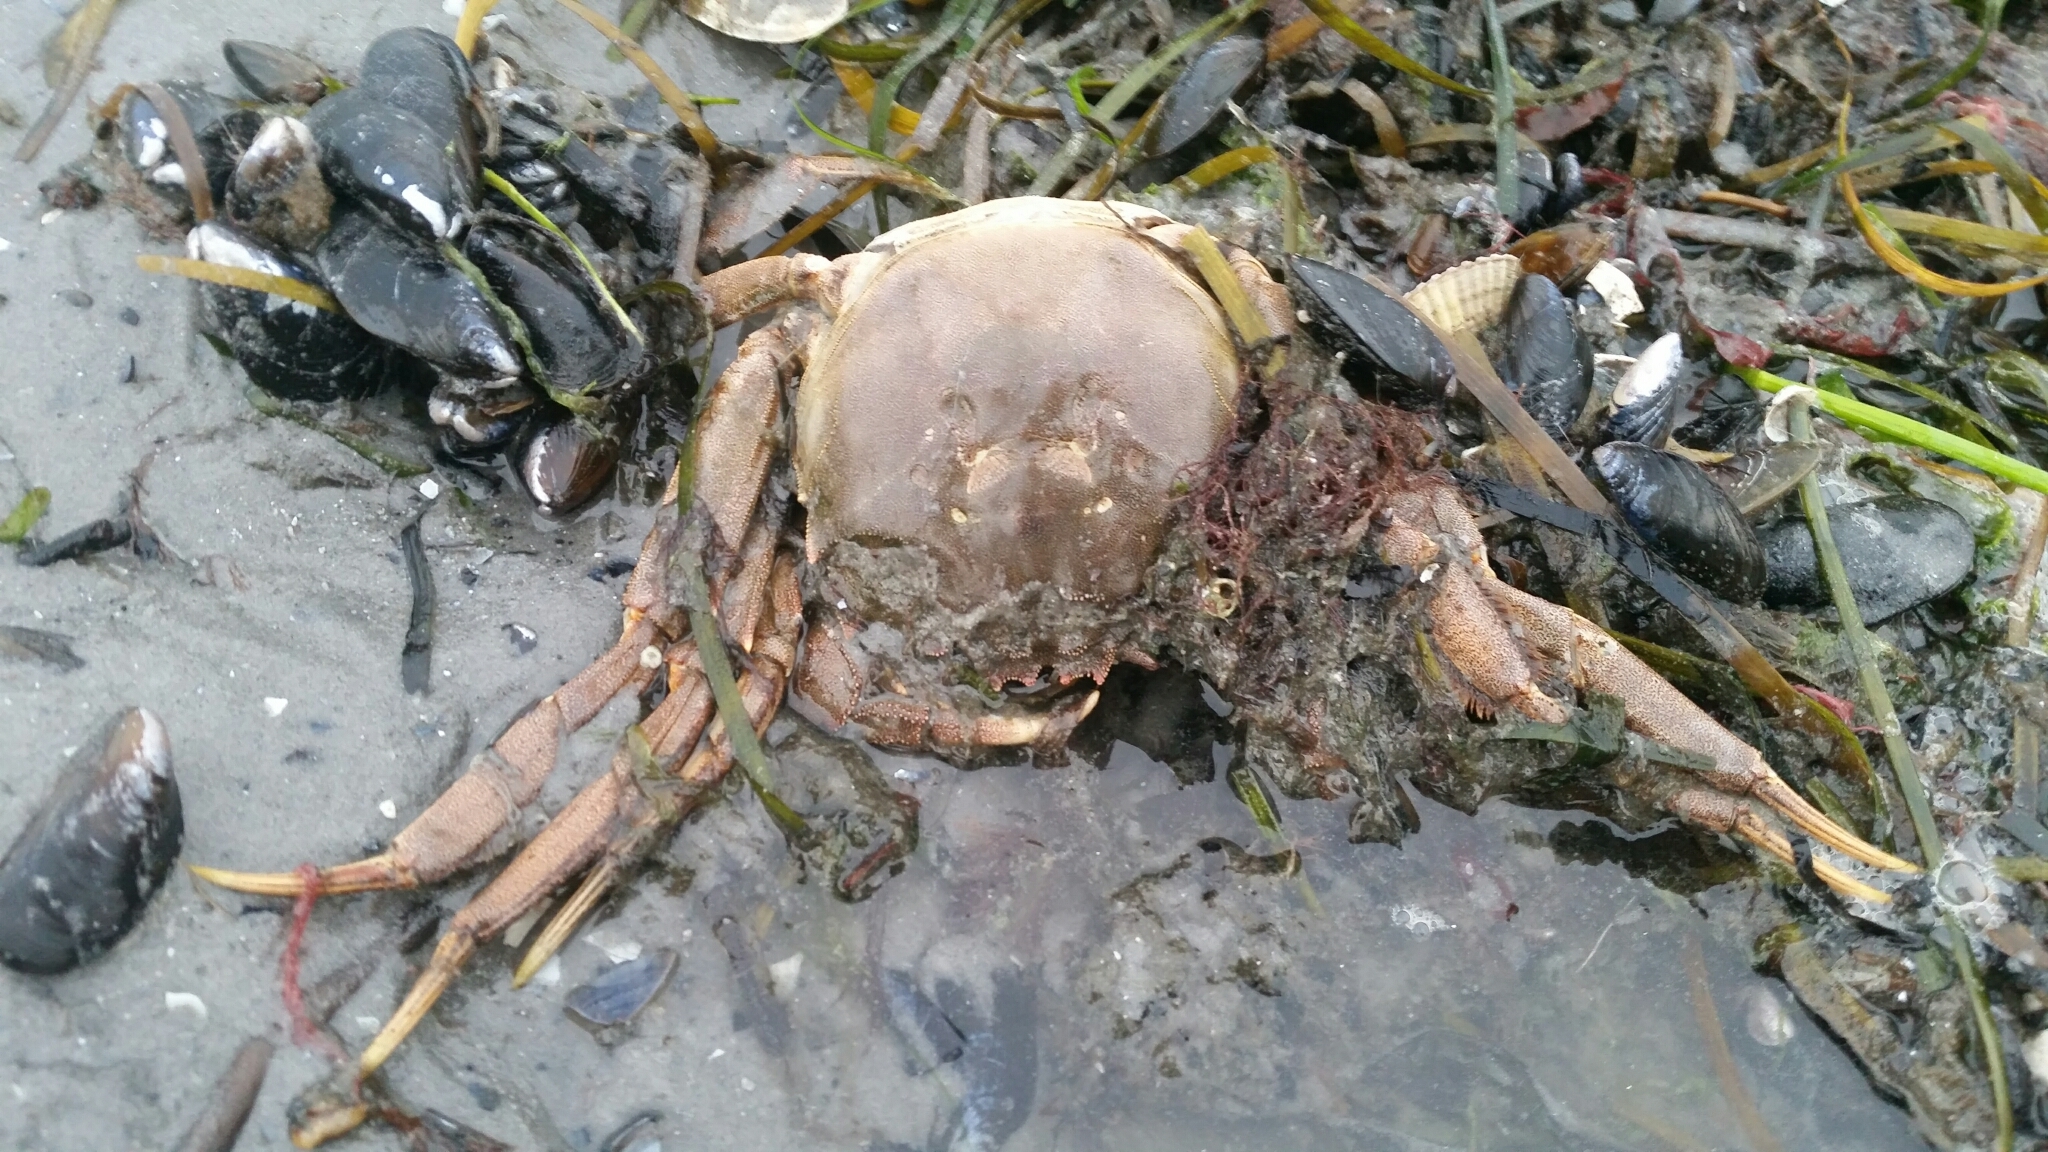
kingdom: Animalia
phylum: Arthropoda
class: Malacostraca
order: Decapoda
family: Varunidae
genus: Eriocheir
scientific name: Eriocheir sinensis
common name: Chinese mitten crab
